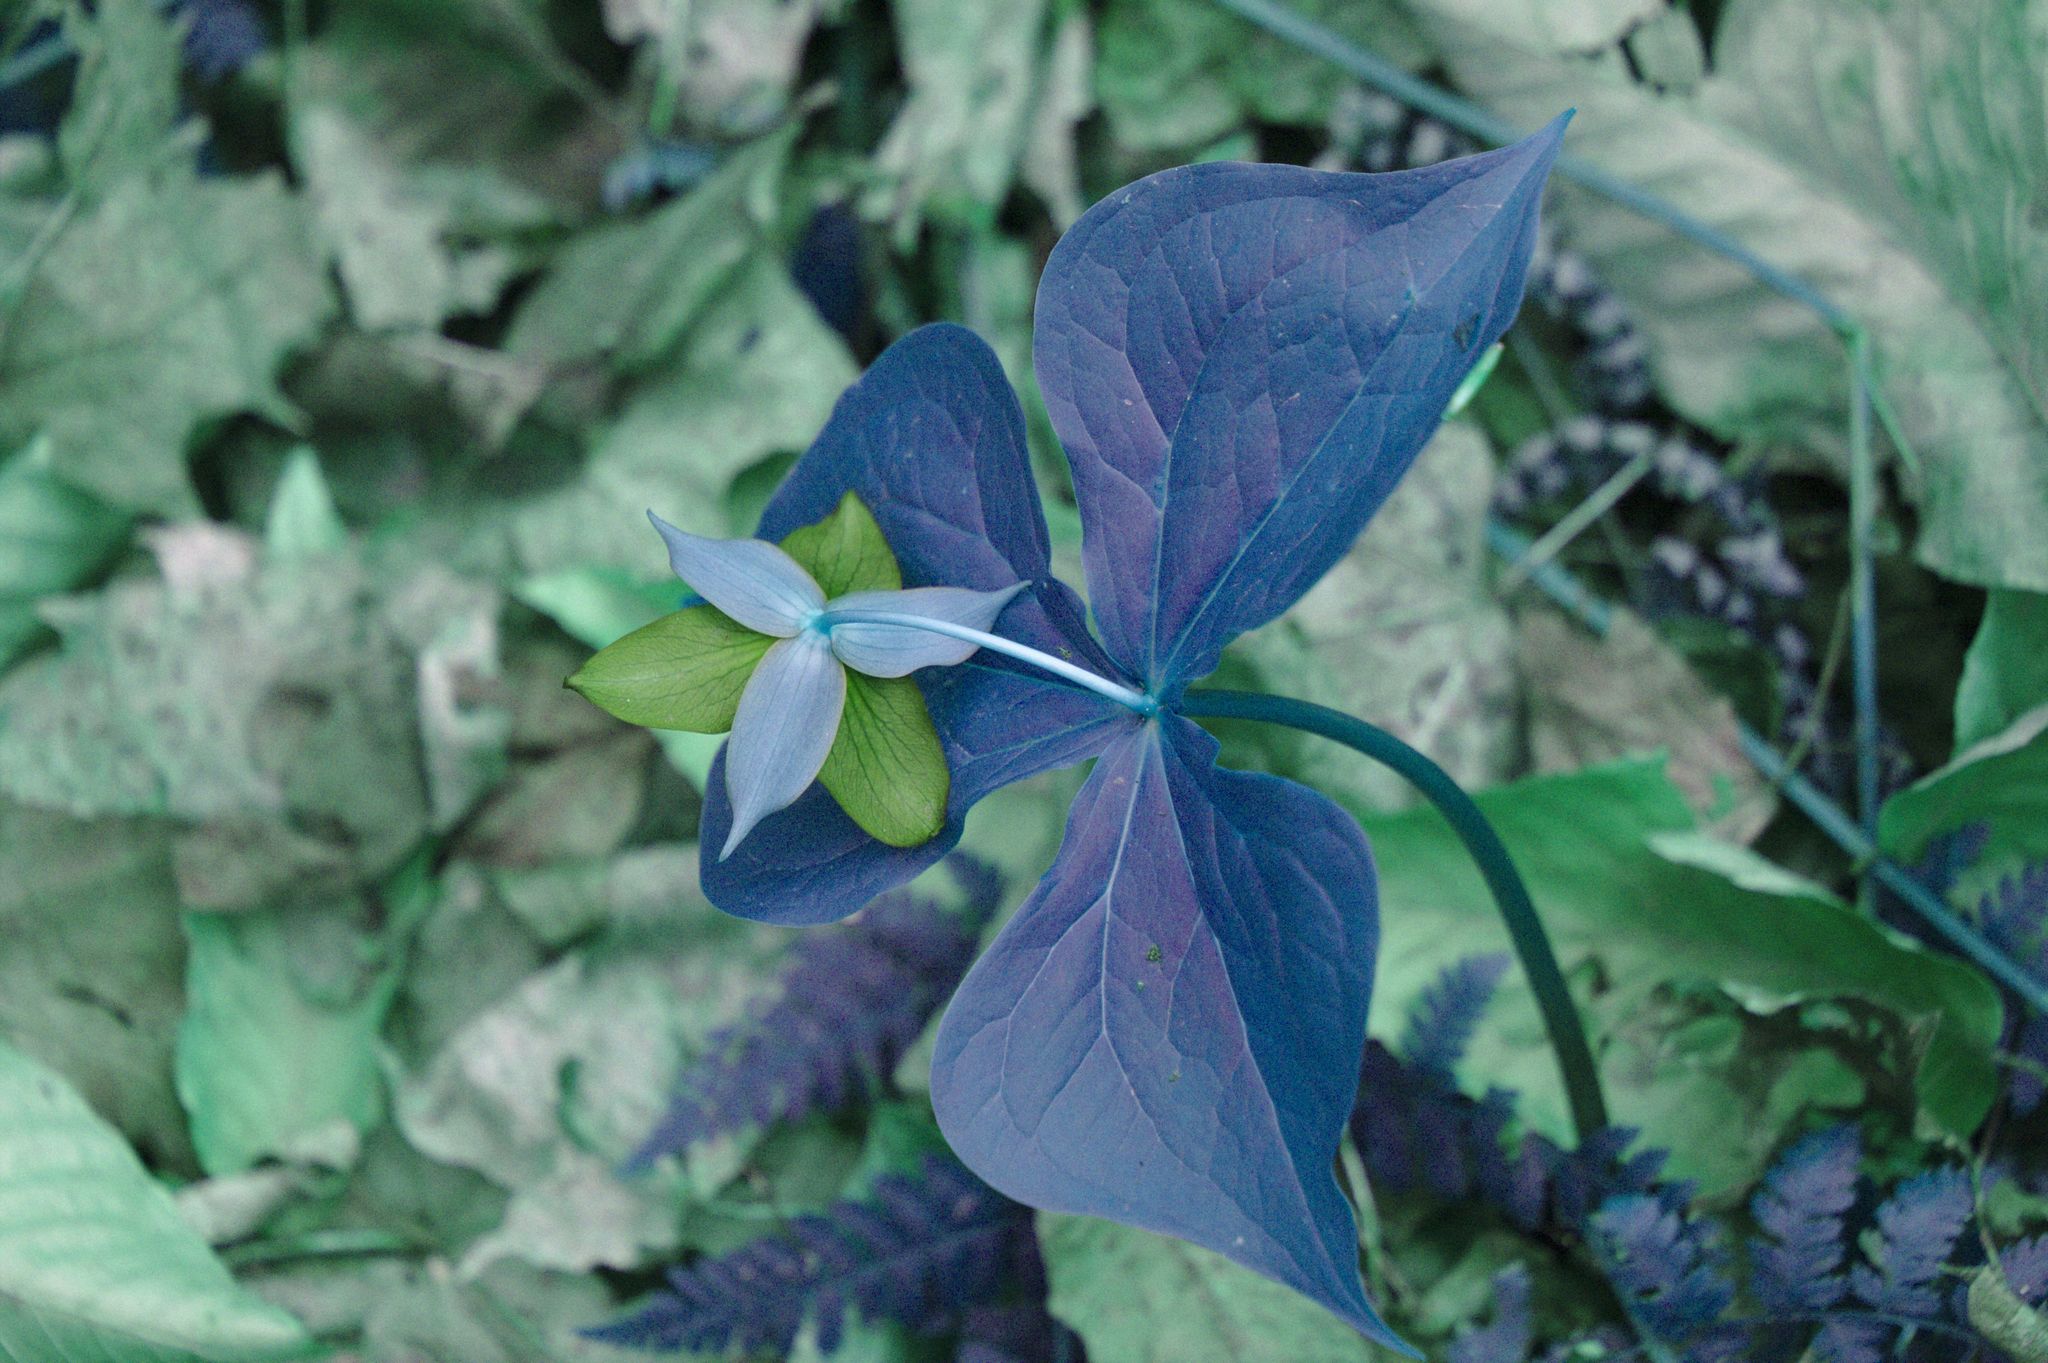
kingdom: Plantae
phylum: Tracheophyta
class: Liliopsida
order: Liliales
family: Melanthiaceae
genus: Trillium
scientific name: Trillium erectum
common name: Purple trillium
